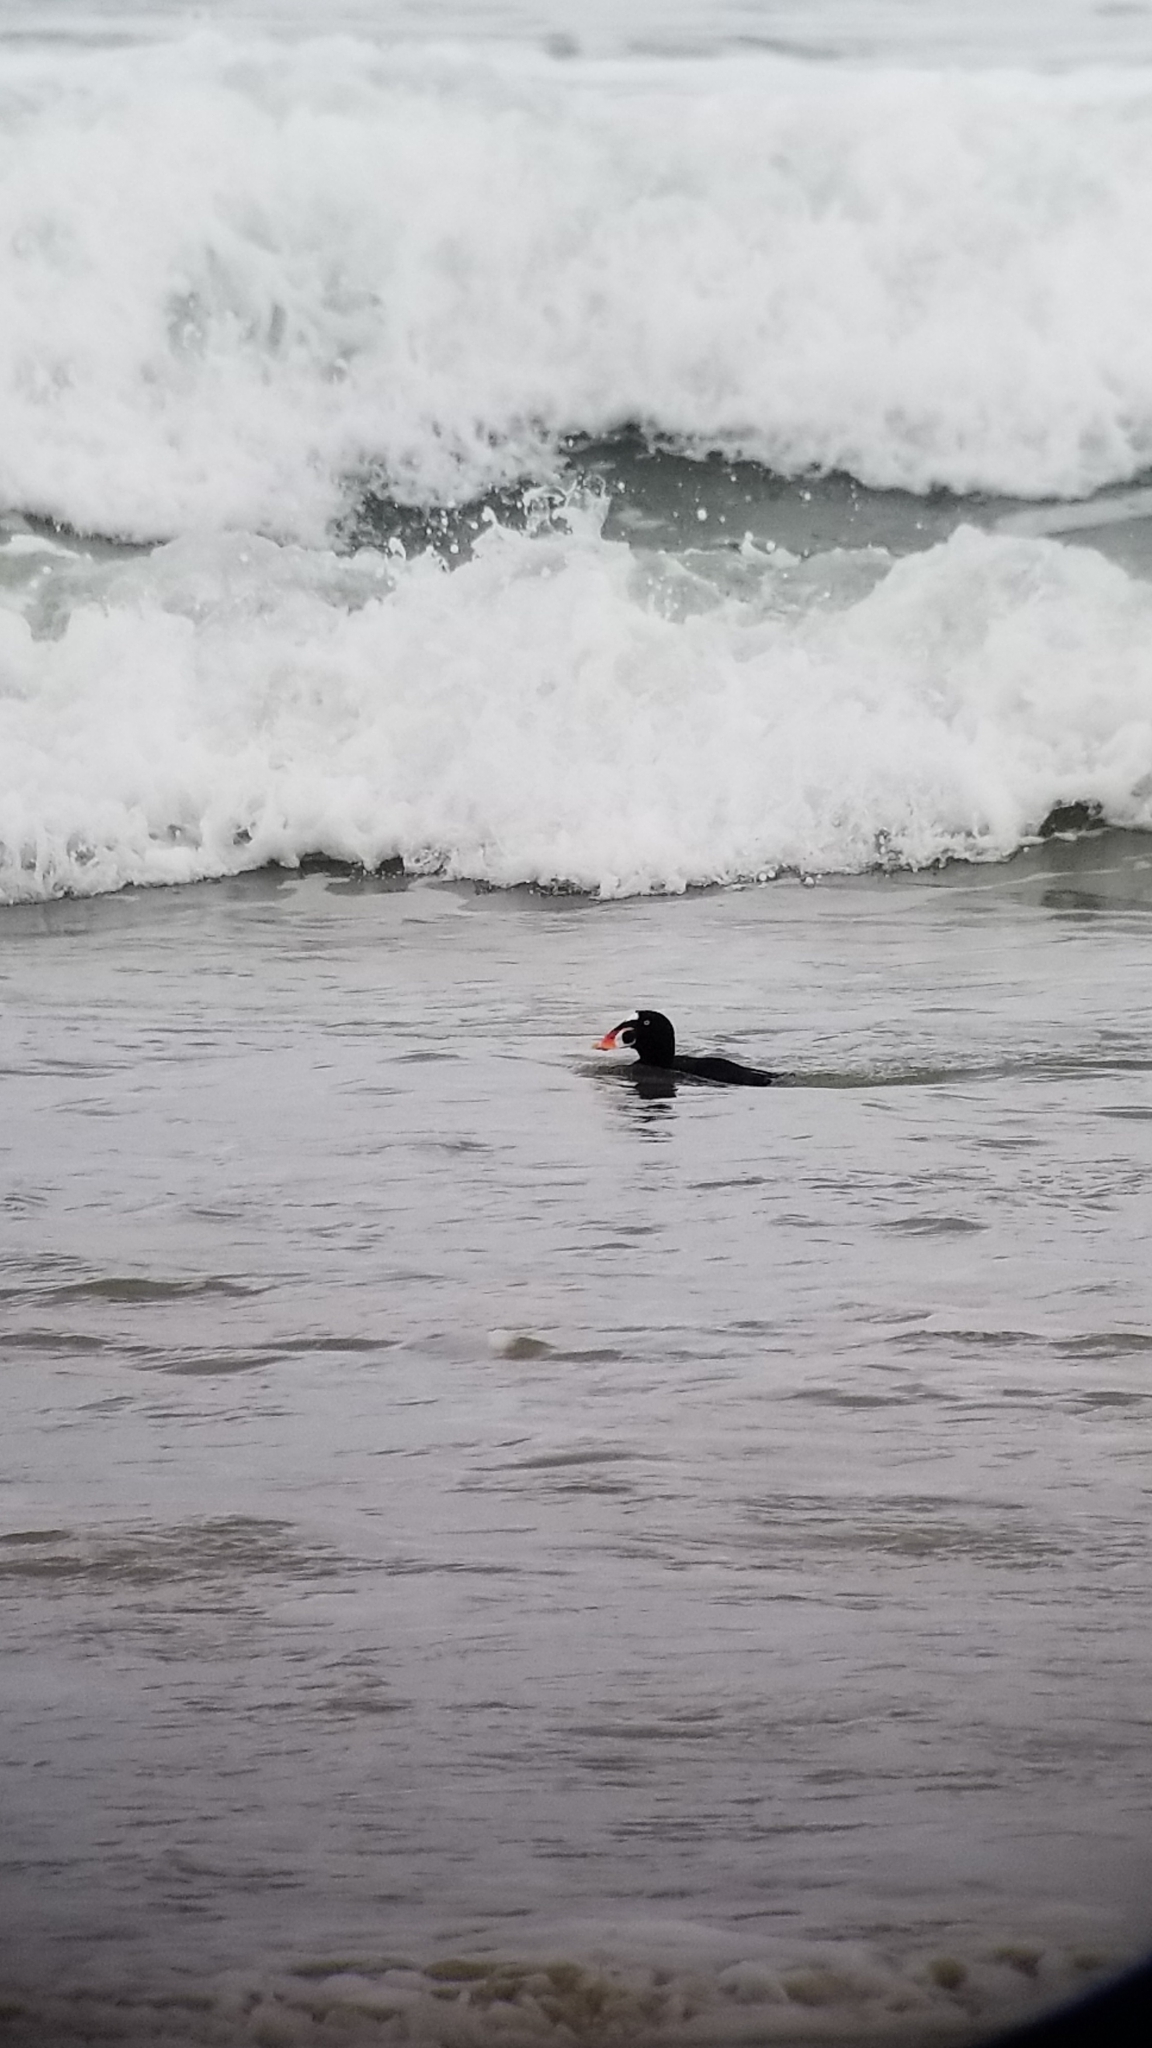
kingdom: Animalia
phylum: Chordata
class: Aves
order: Anseriformes
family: Anatidae
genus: Melanitta
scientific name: Melanitta perspicillata
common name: Surf scoter
